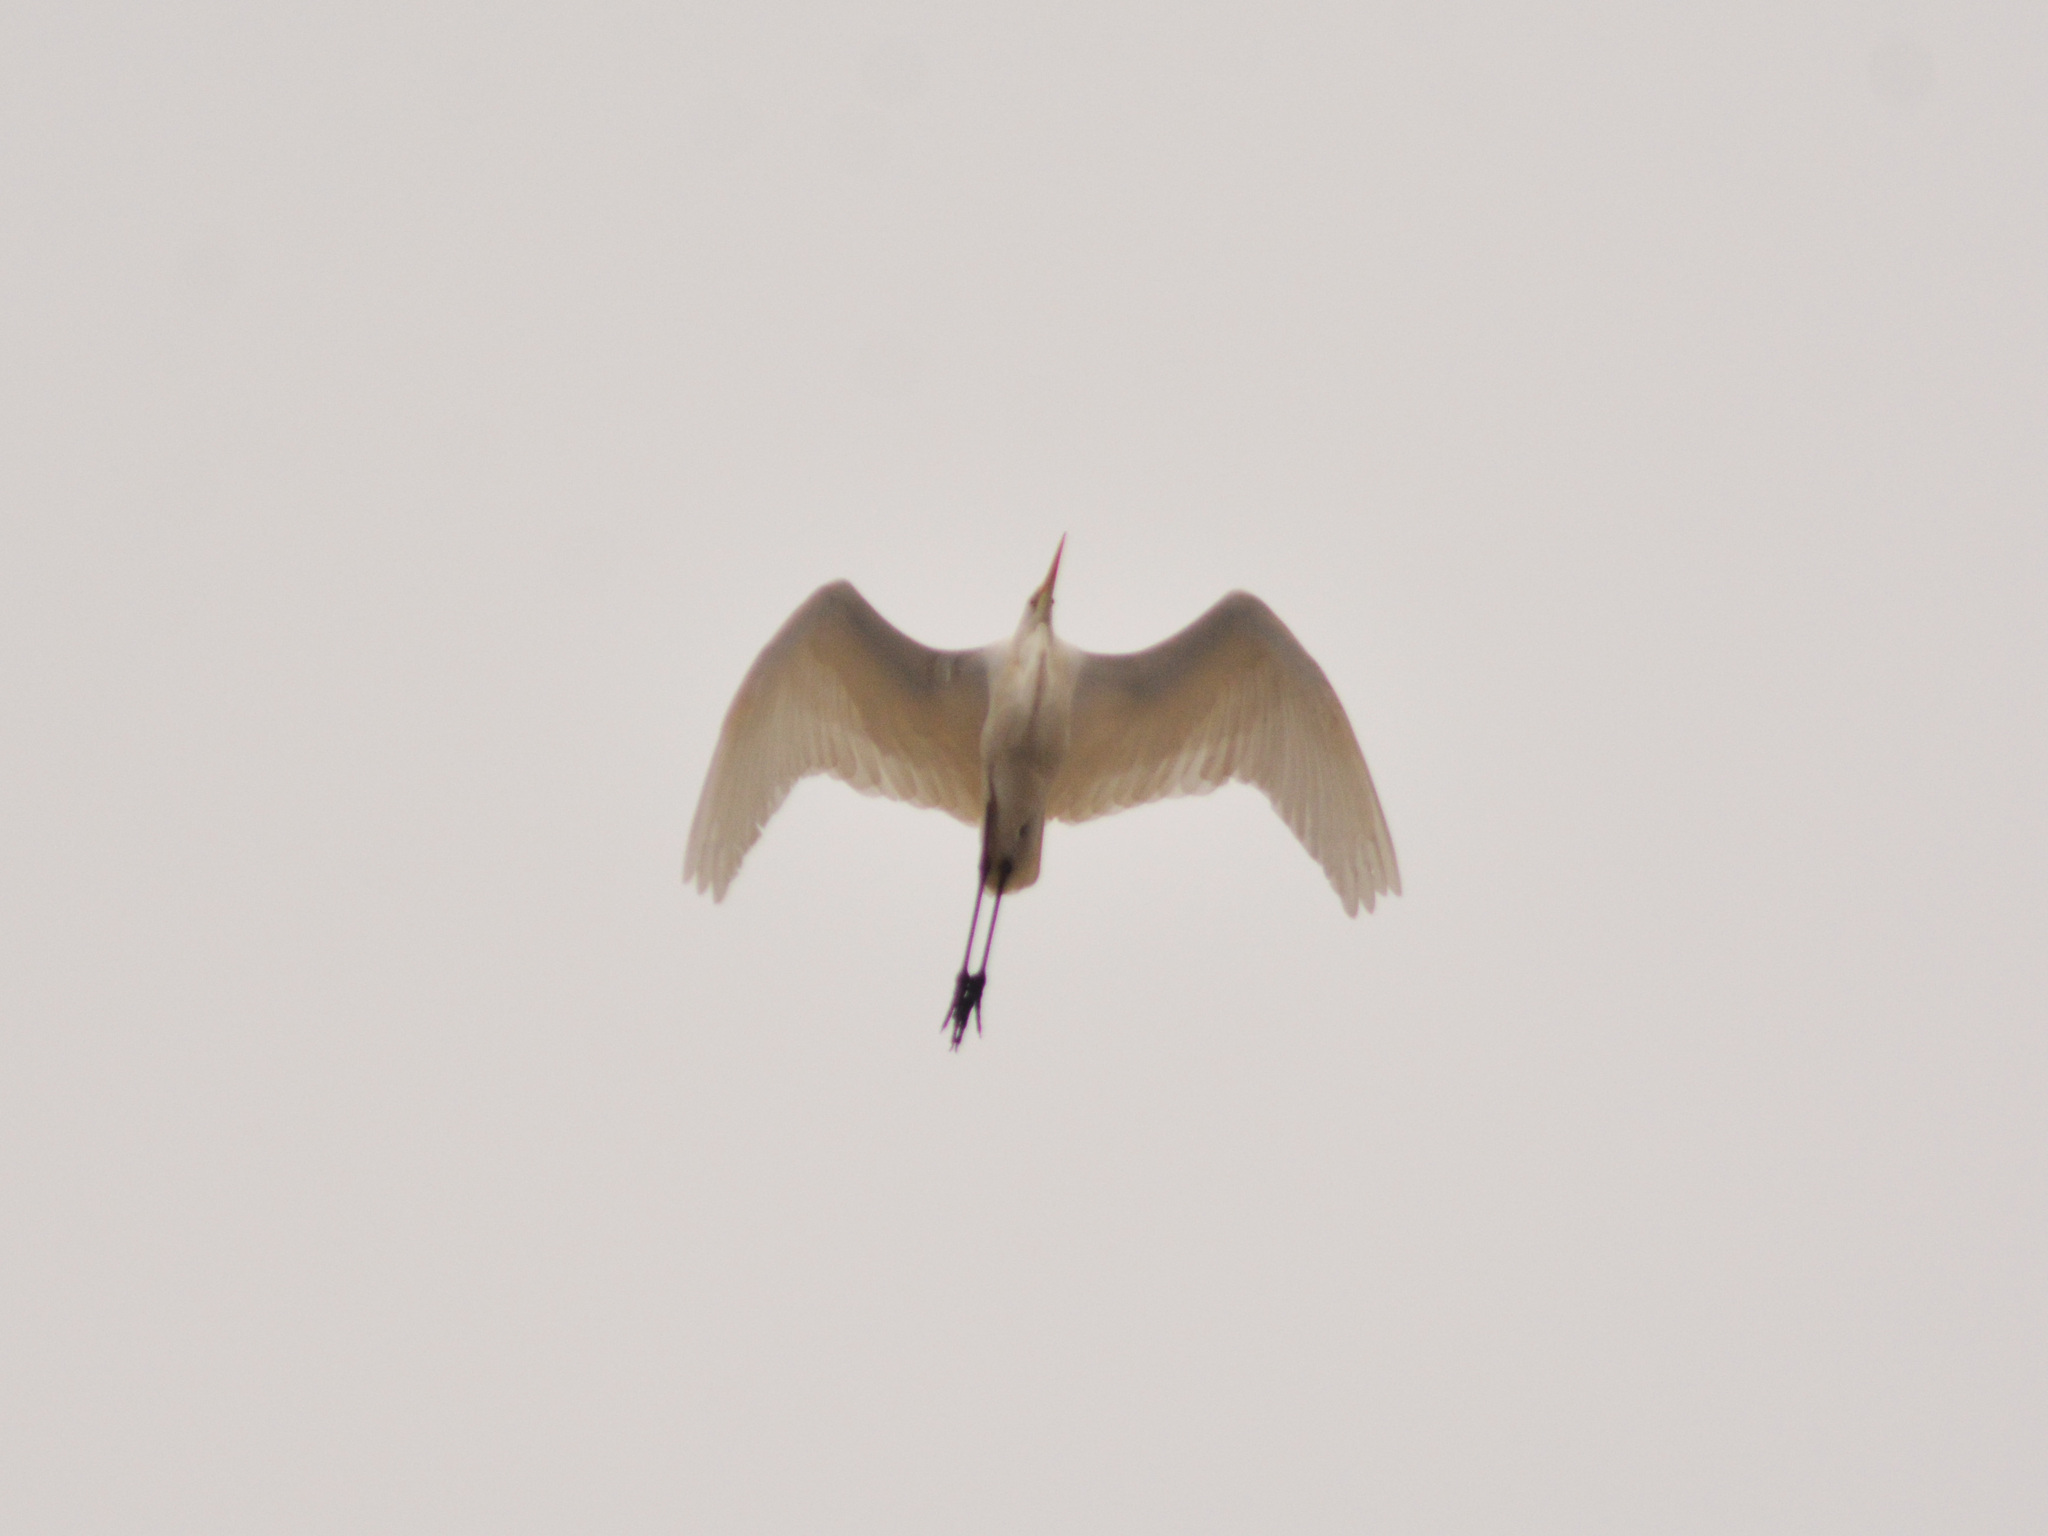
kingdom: Animalia
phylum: Chordata
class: Aves
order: Pelecaniformes
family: Ardeidae
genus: Ardea
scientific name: Ardea alba
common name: Great egret
